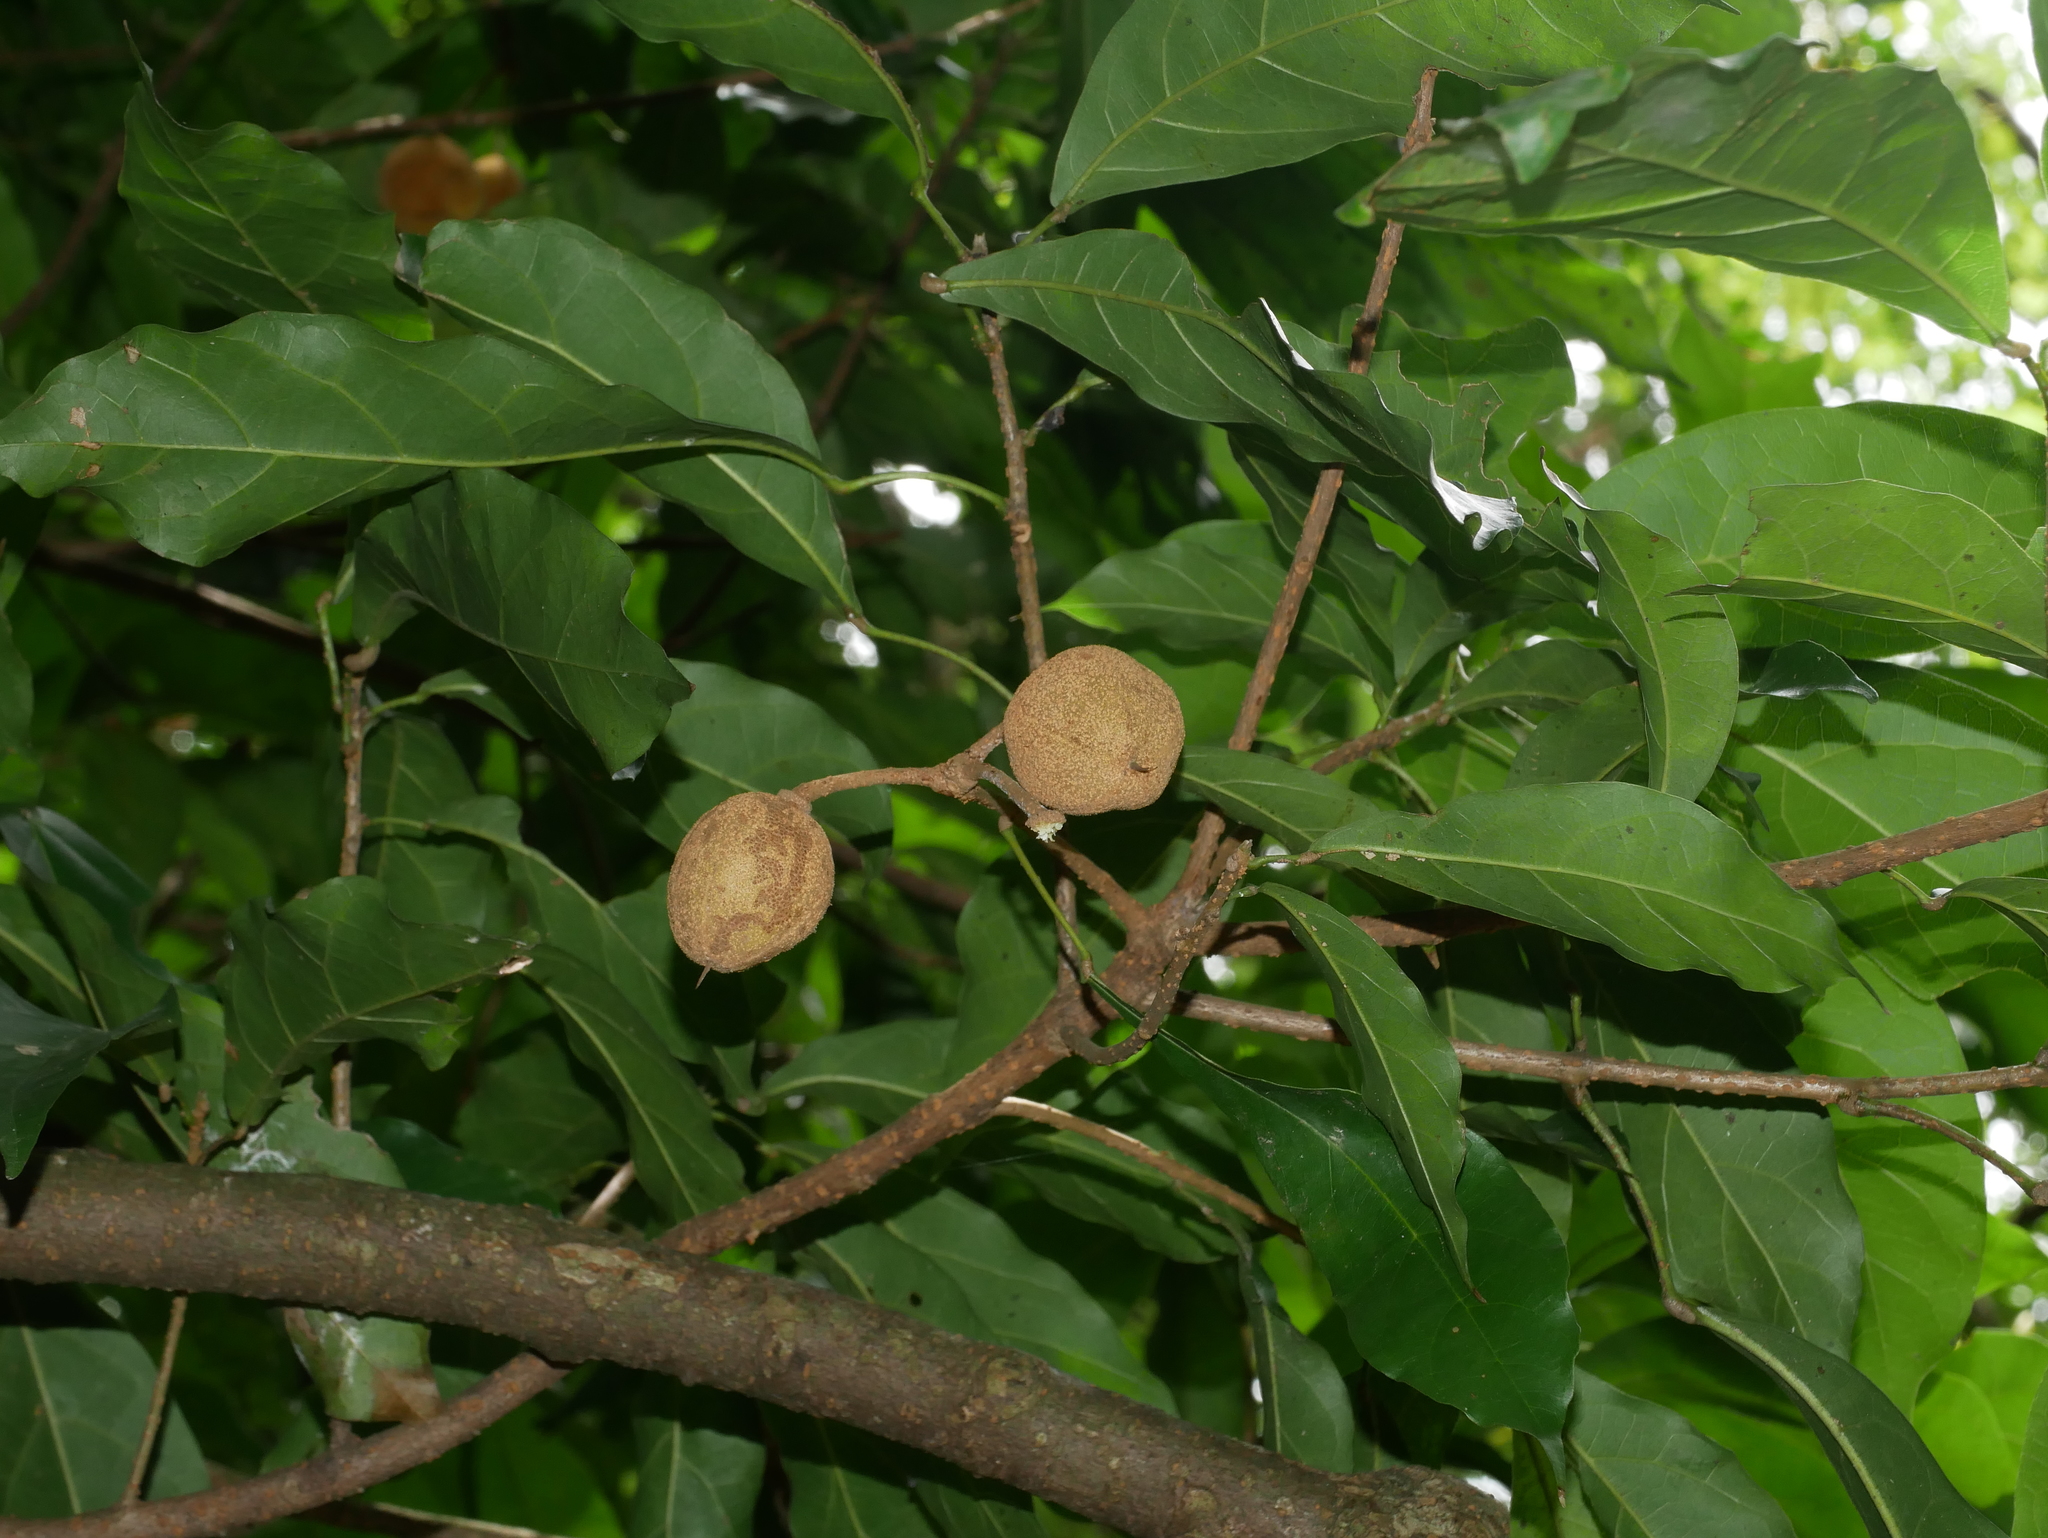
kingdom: Plantae
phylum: Tracheophyta
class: Magnoliopsida
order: Oxalidales
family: Elaeocarpaceae
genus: Sloanea
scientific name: Sloanea dasycarpa
